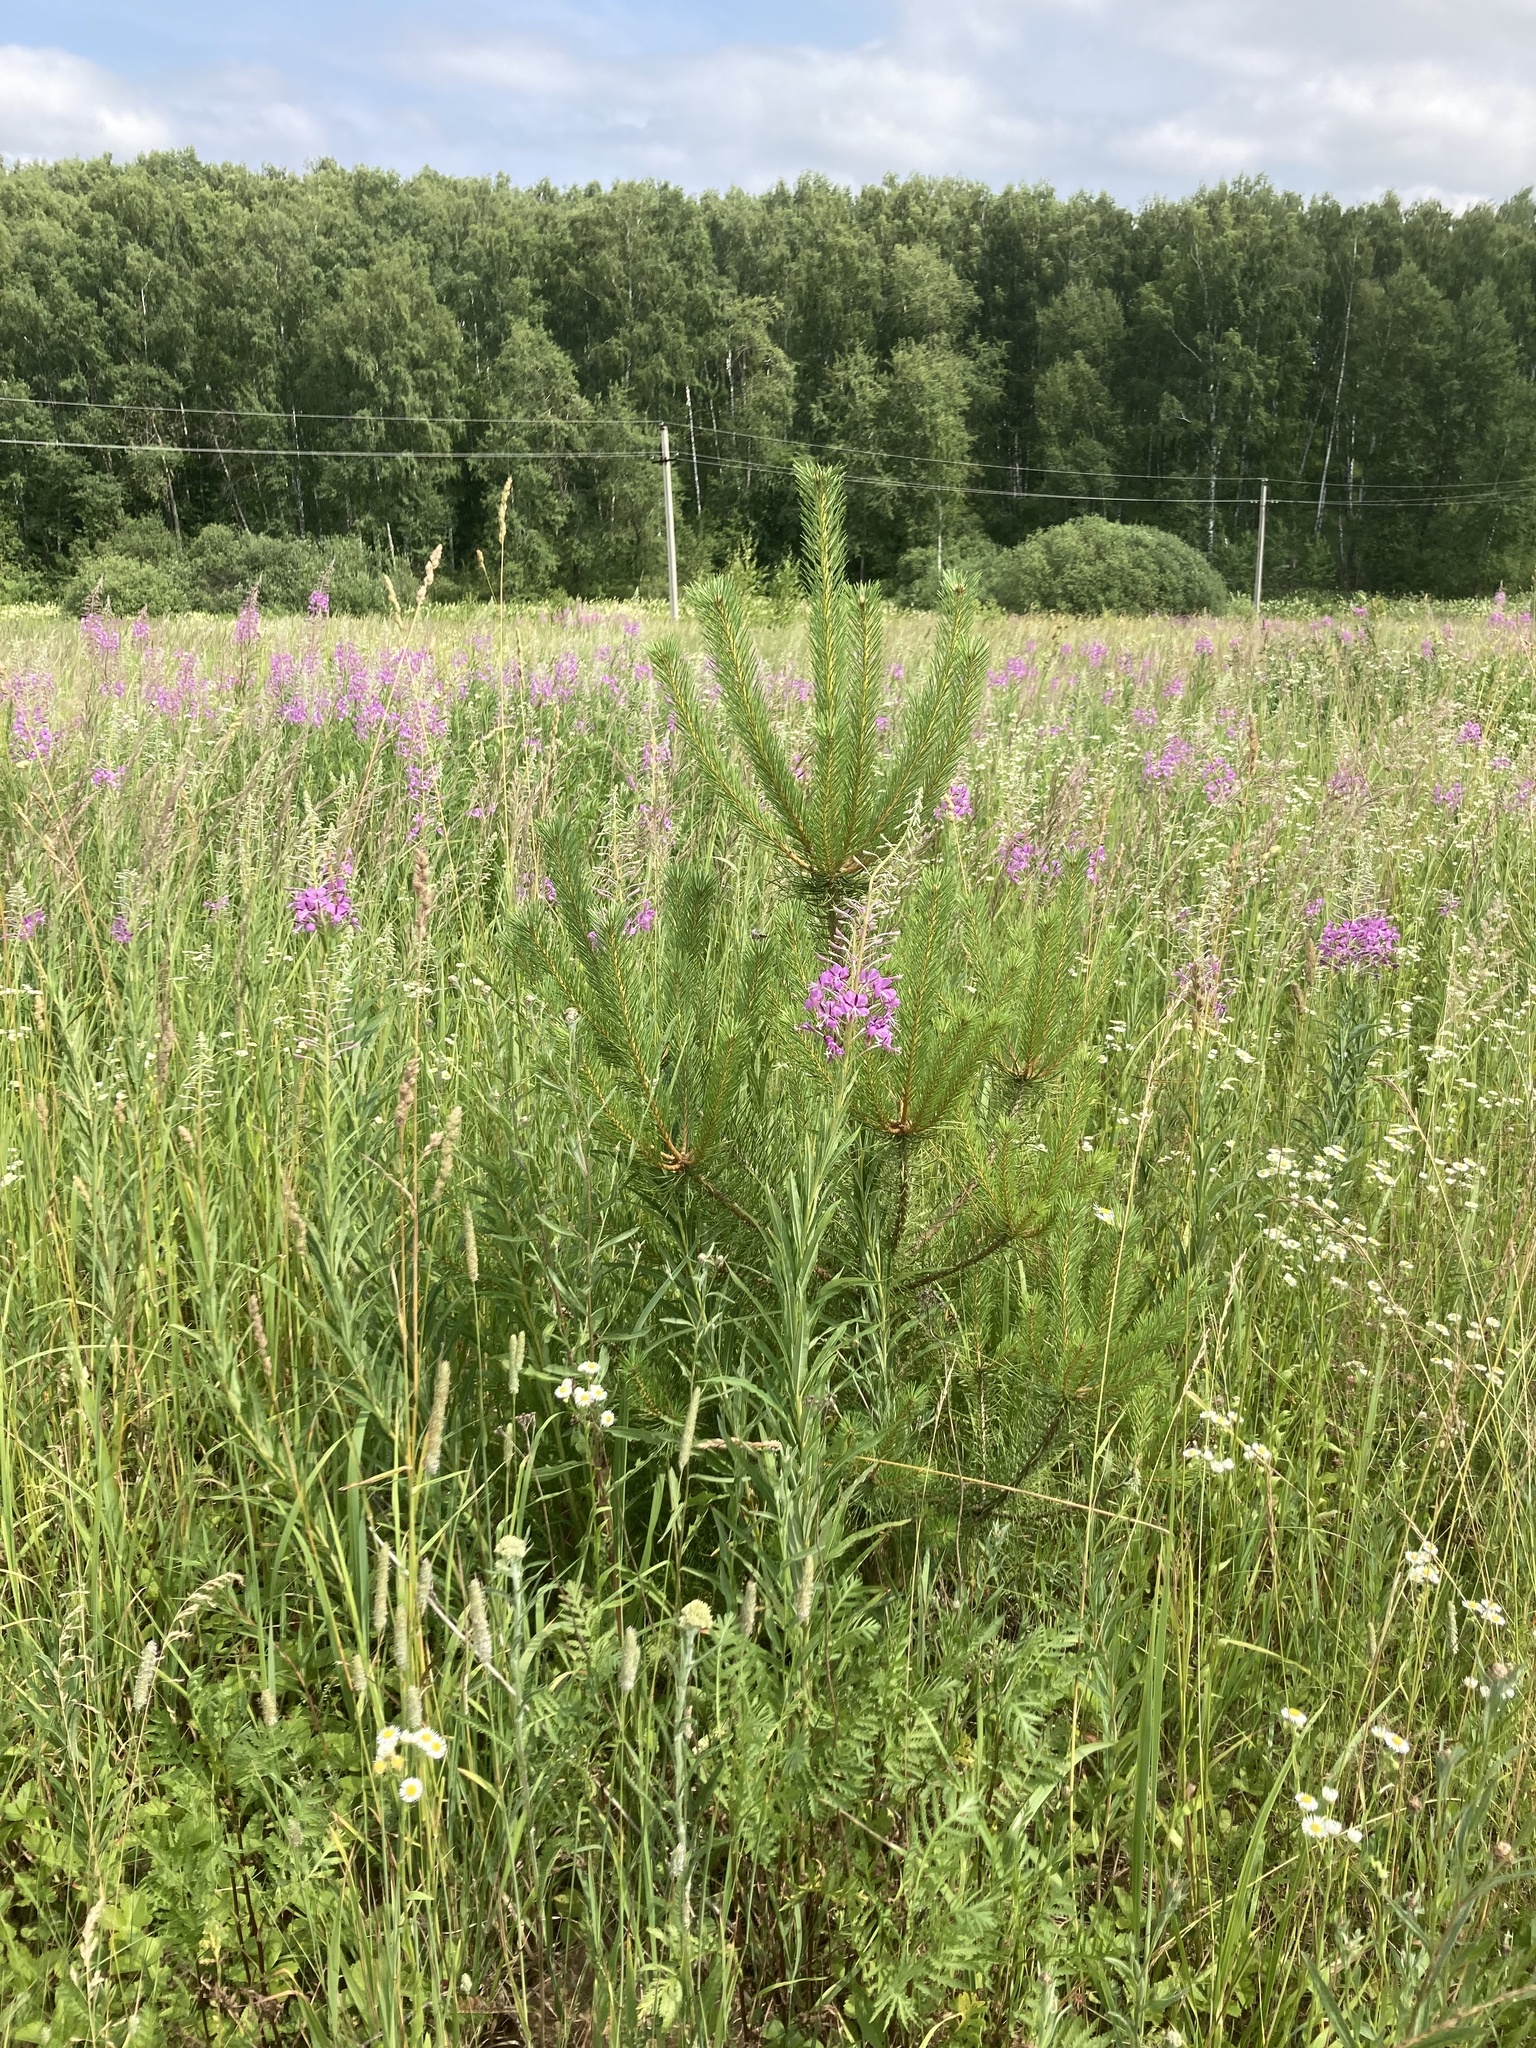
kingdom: Plantae
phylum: Tracheophyta
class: Pinopsida
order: Pinales
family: Pinaceae
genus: Pinus
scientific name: Pinus sylvestris
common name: Scots pine
